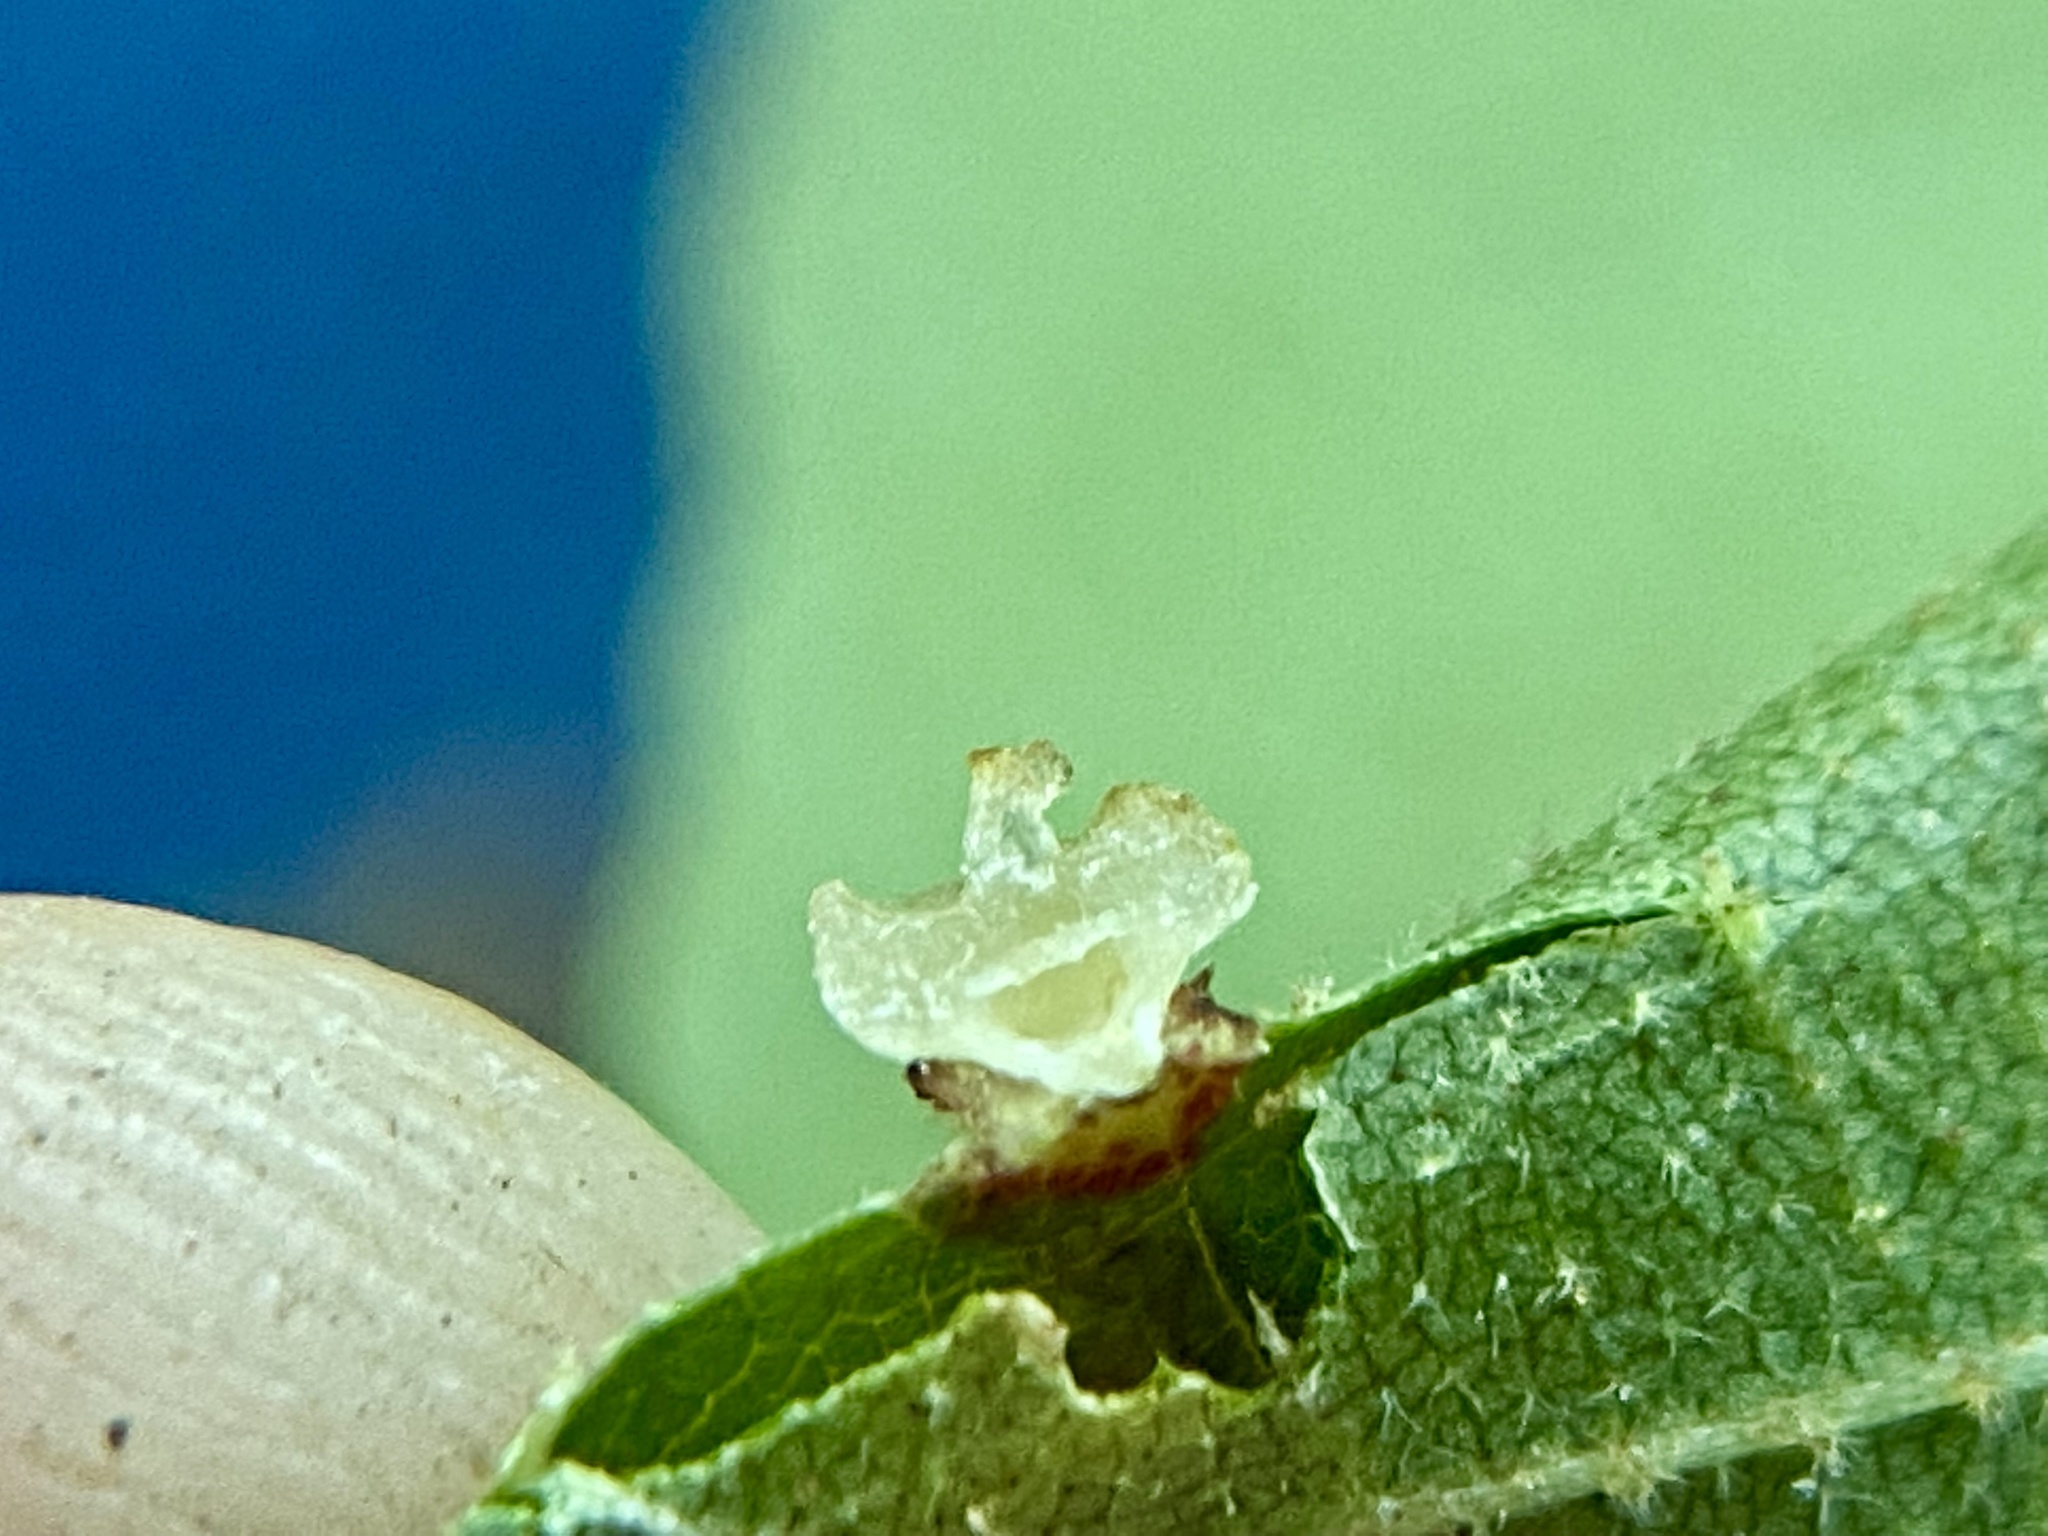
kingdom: Animalia
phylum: Arthropoda
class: Insecta
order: Diptera
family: Cecidomyiidae
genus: Caryomyia
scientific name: Caryomyia melicrustum
